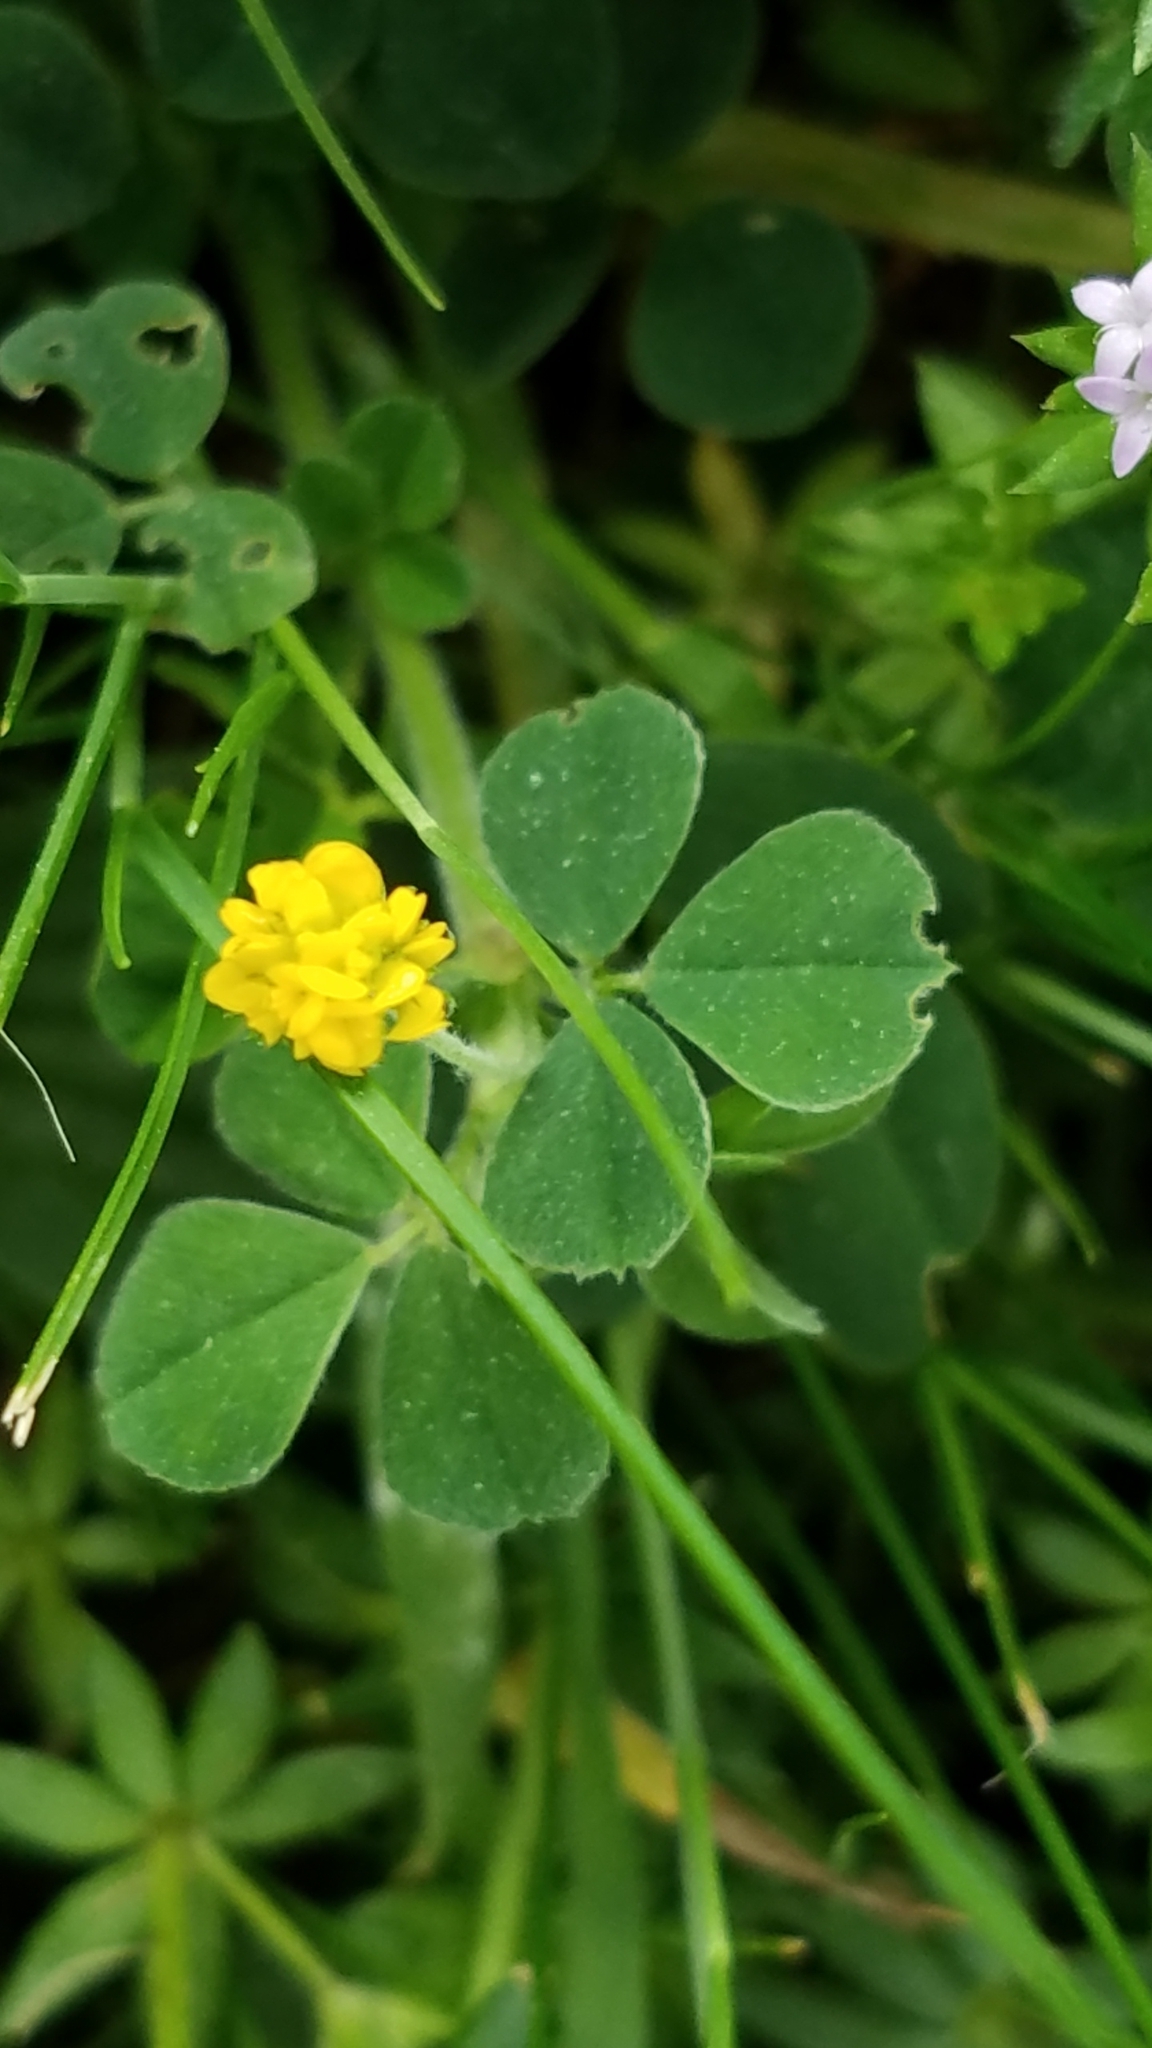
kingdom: Plantae
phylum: Tracheophyta
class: Magnoliopsida
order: Fabales
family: Fabaceae
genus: Medicago
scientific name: Medicago lupulina
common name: Black medick
